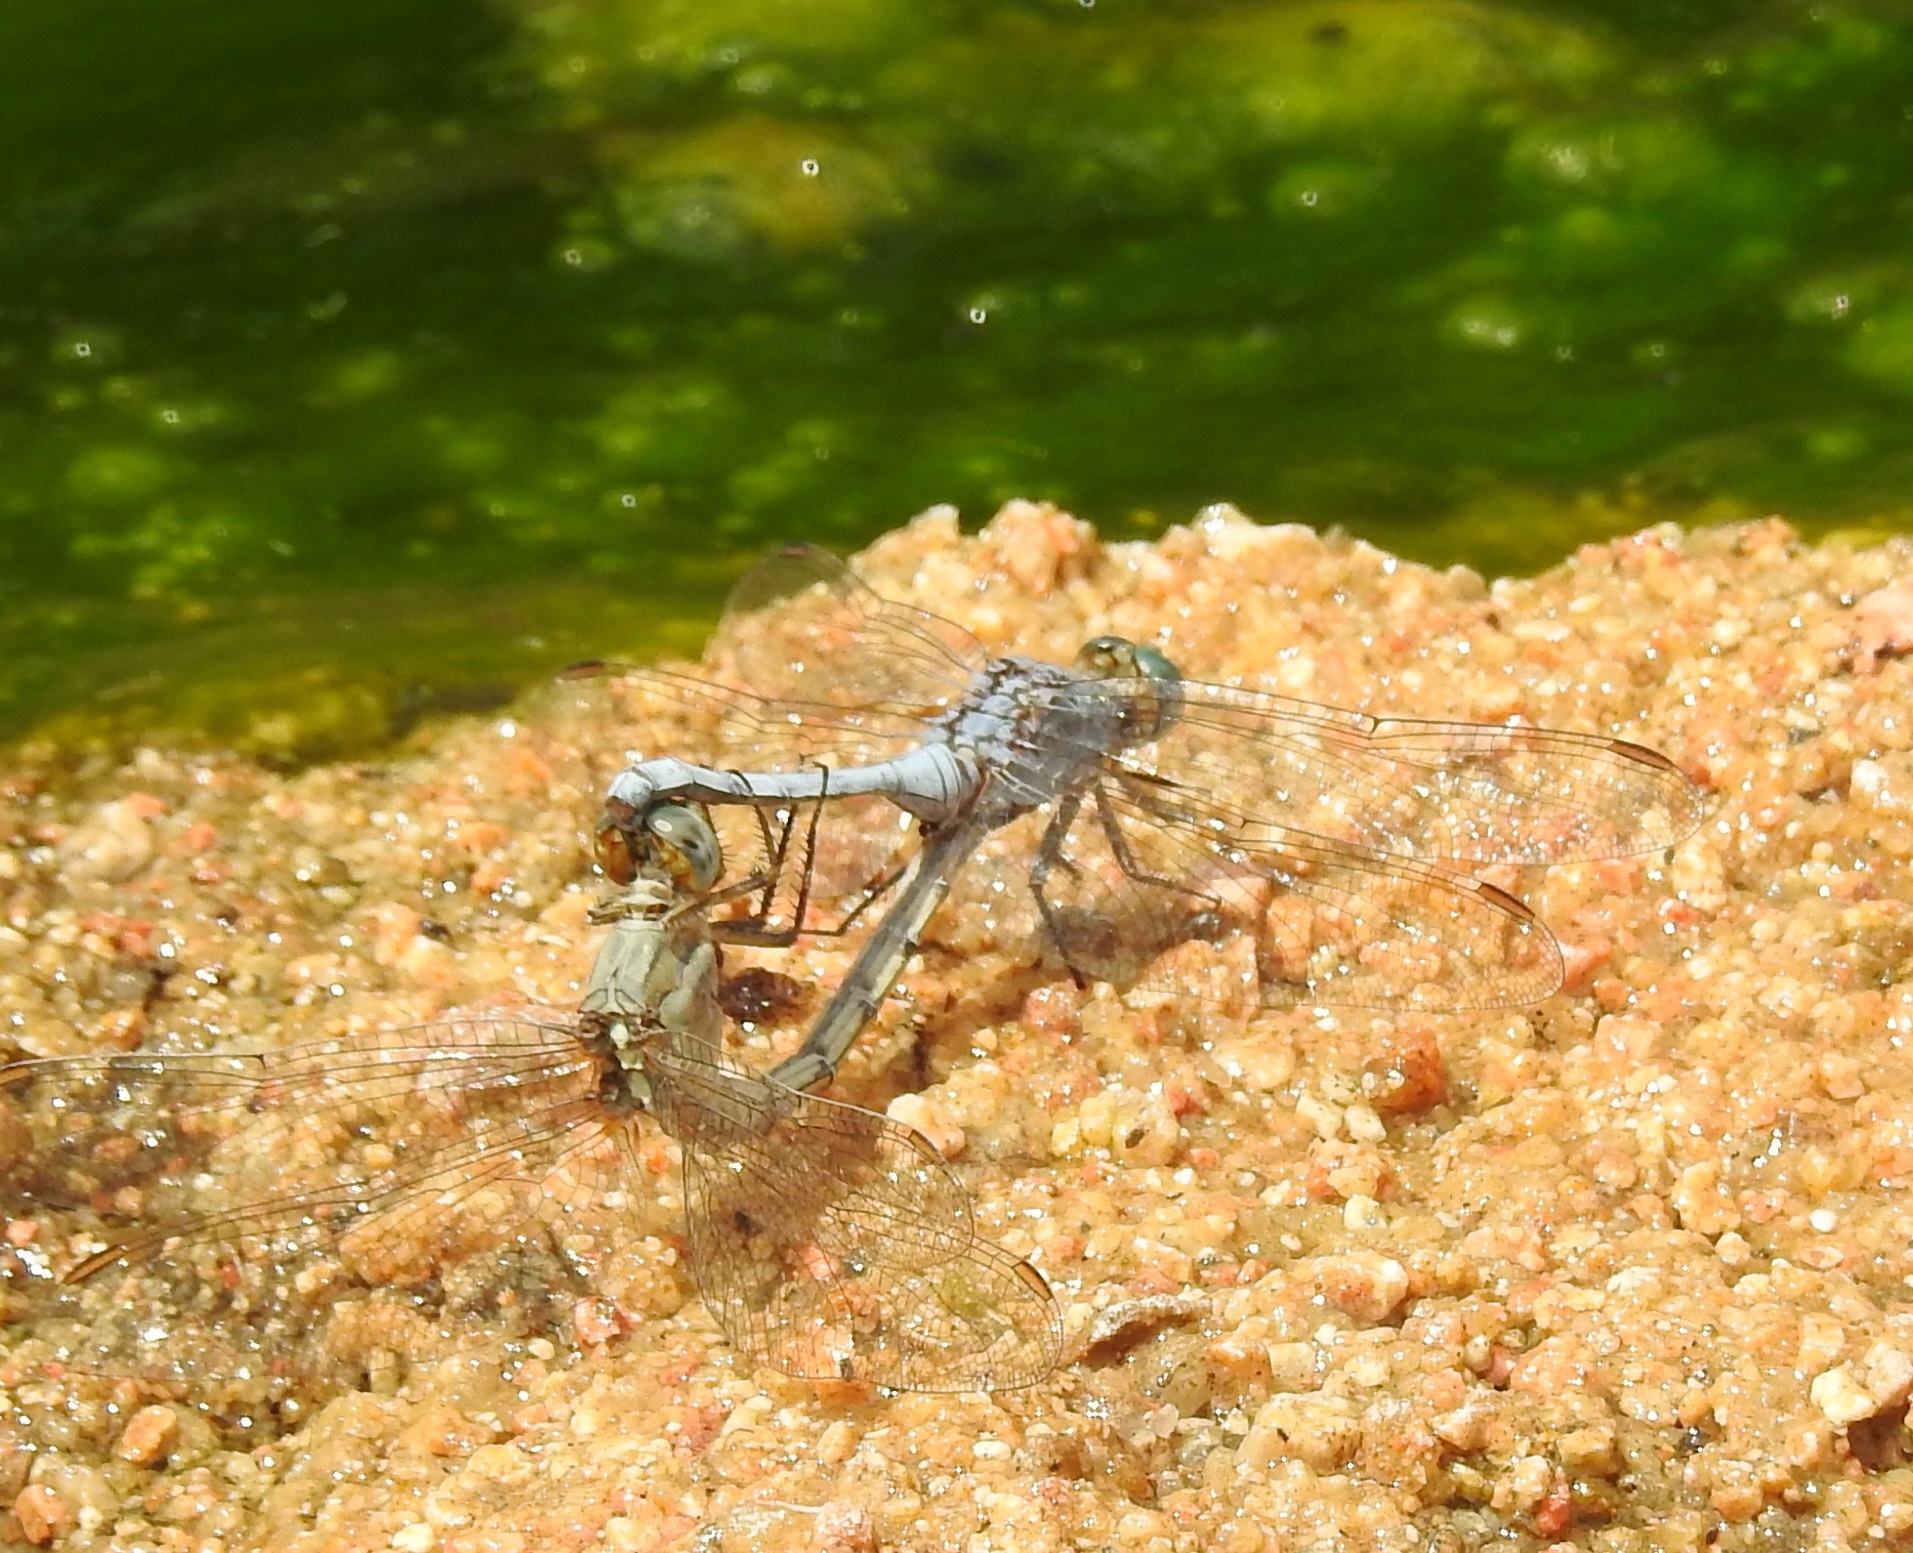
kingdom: Animalia
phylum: Arthropoda
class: Insecta
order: Odonata
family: Libellulidae
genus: Orthetrum
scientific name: Orthetrum chrysostigma
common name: Epaulet skimmer
